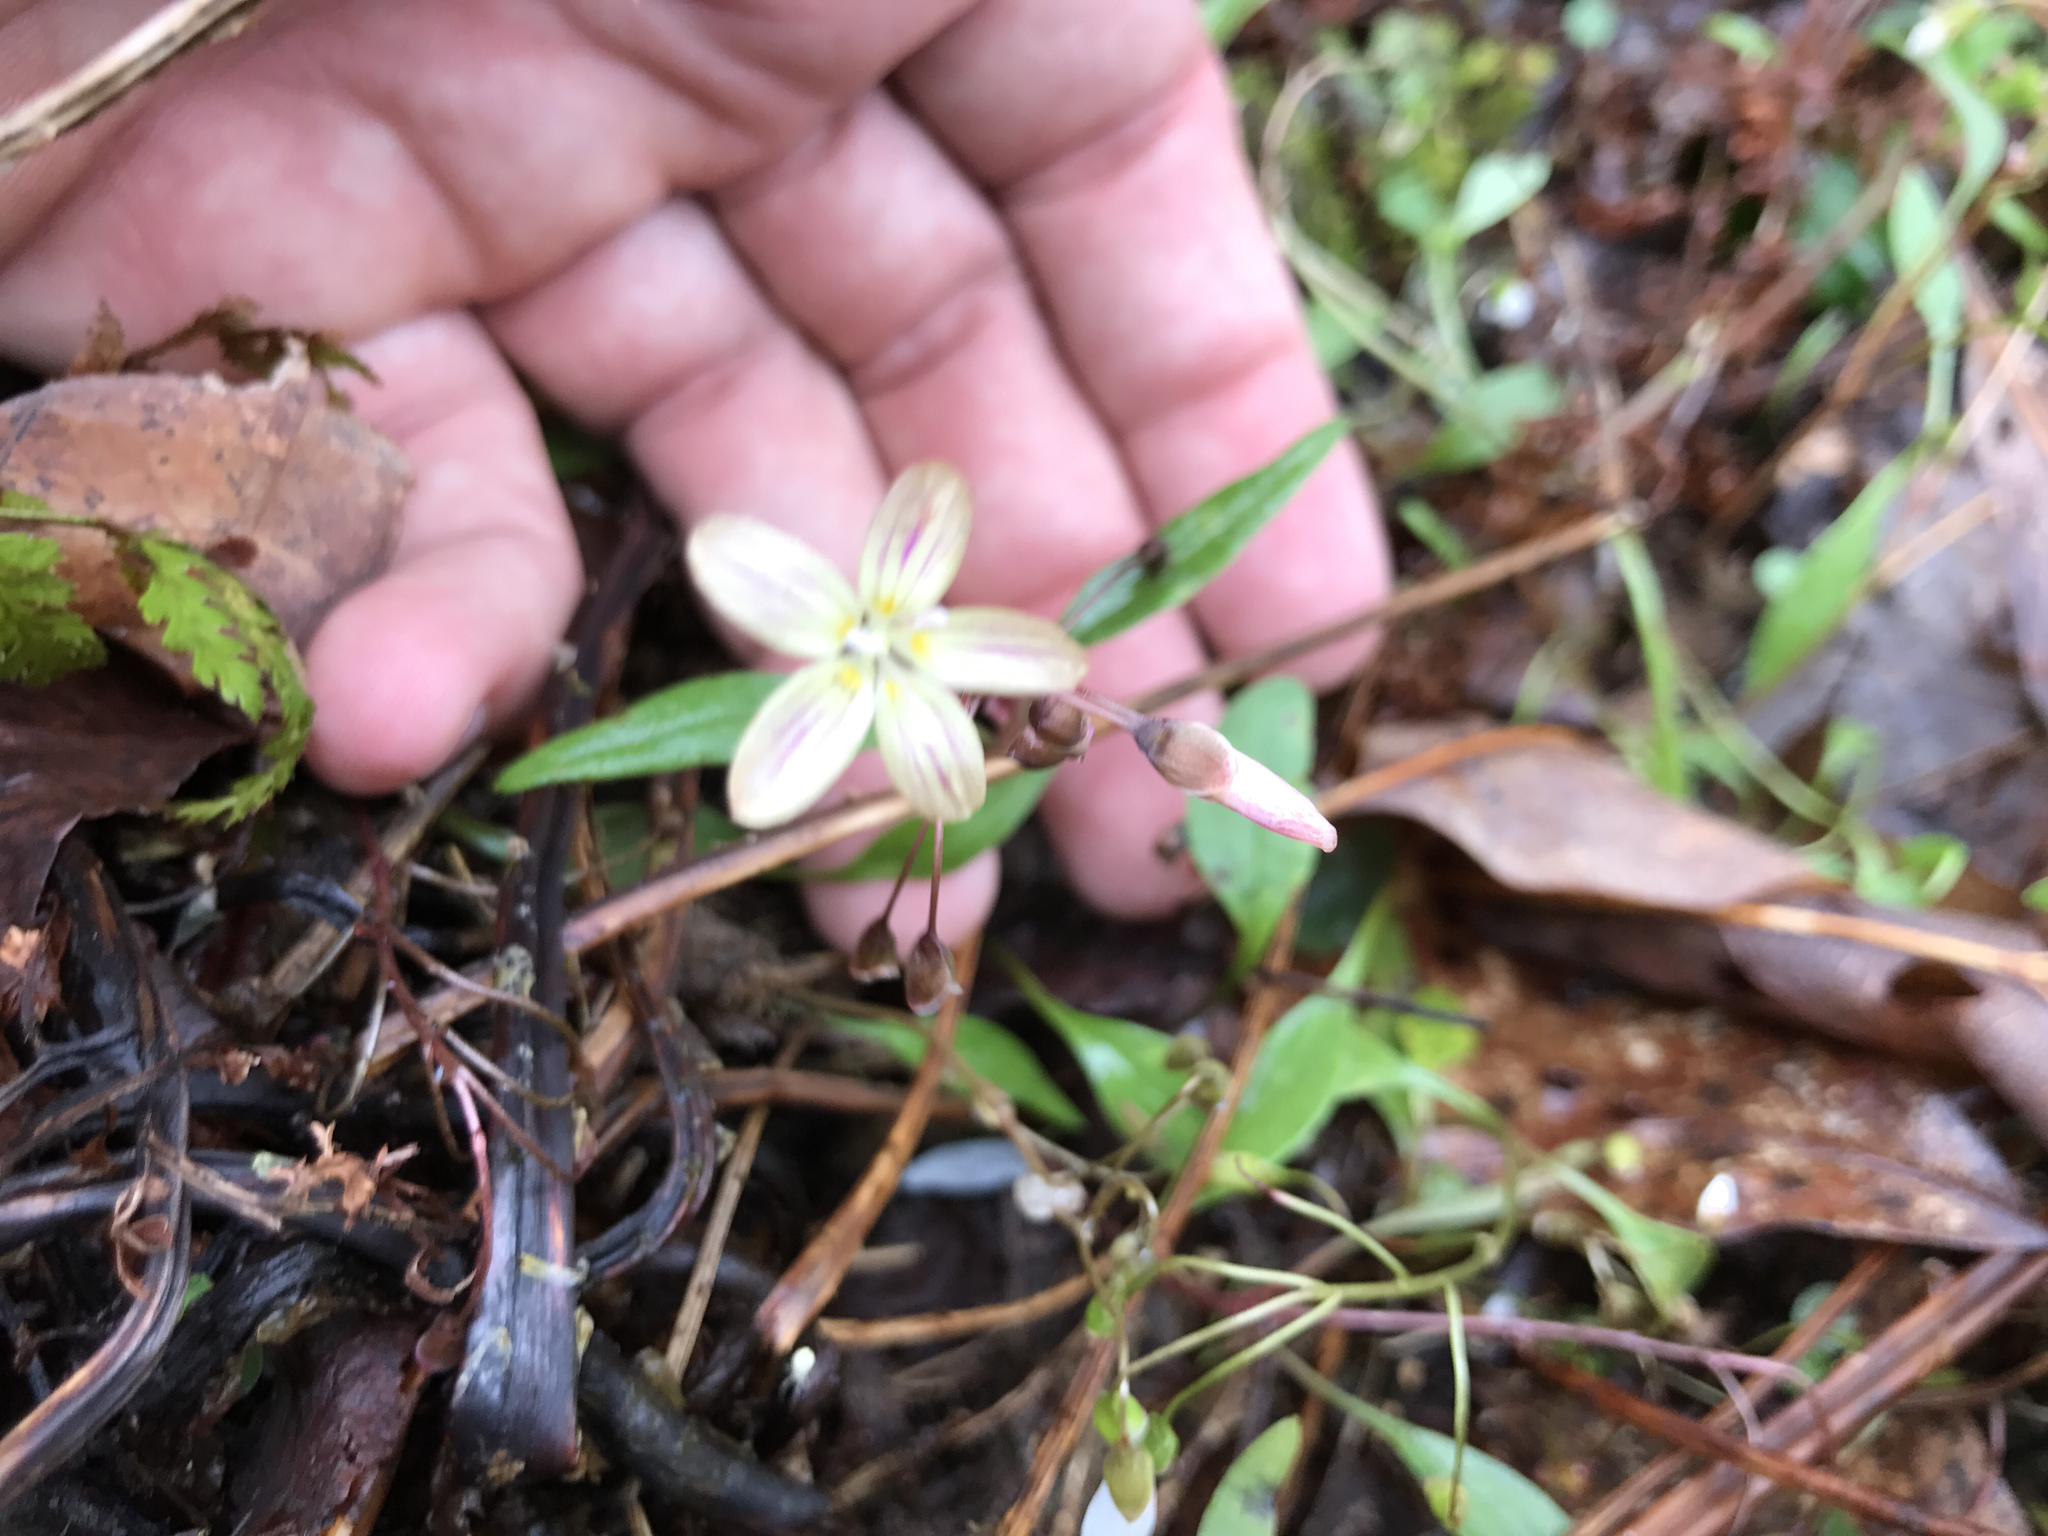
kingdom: Plantae
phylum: Tracheophyta
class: Magnoliopsida
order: Caryophyllales
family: Montiaceae
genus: Claytonia
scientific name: Claytonia caroliniana
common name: Carolina spring beauty
